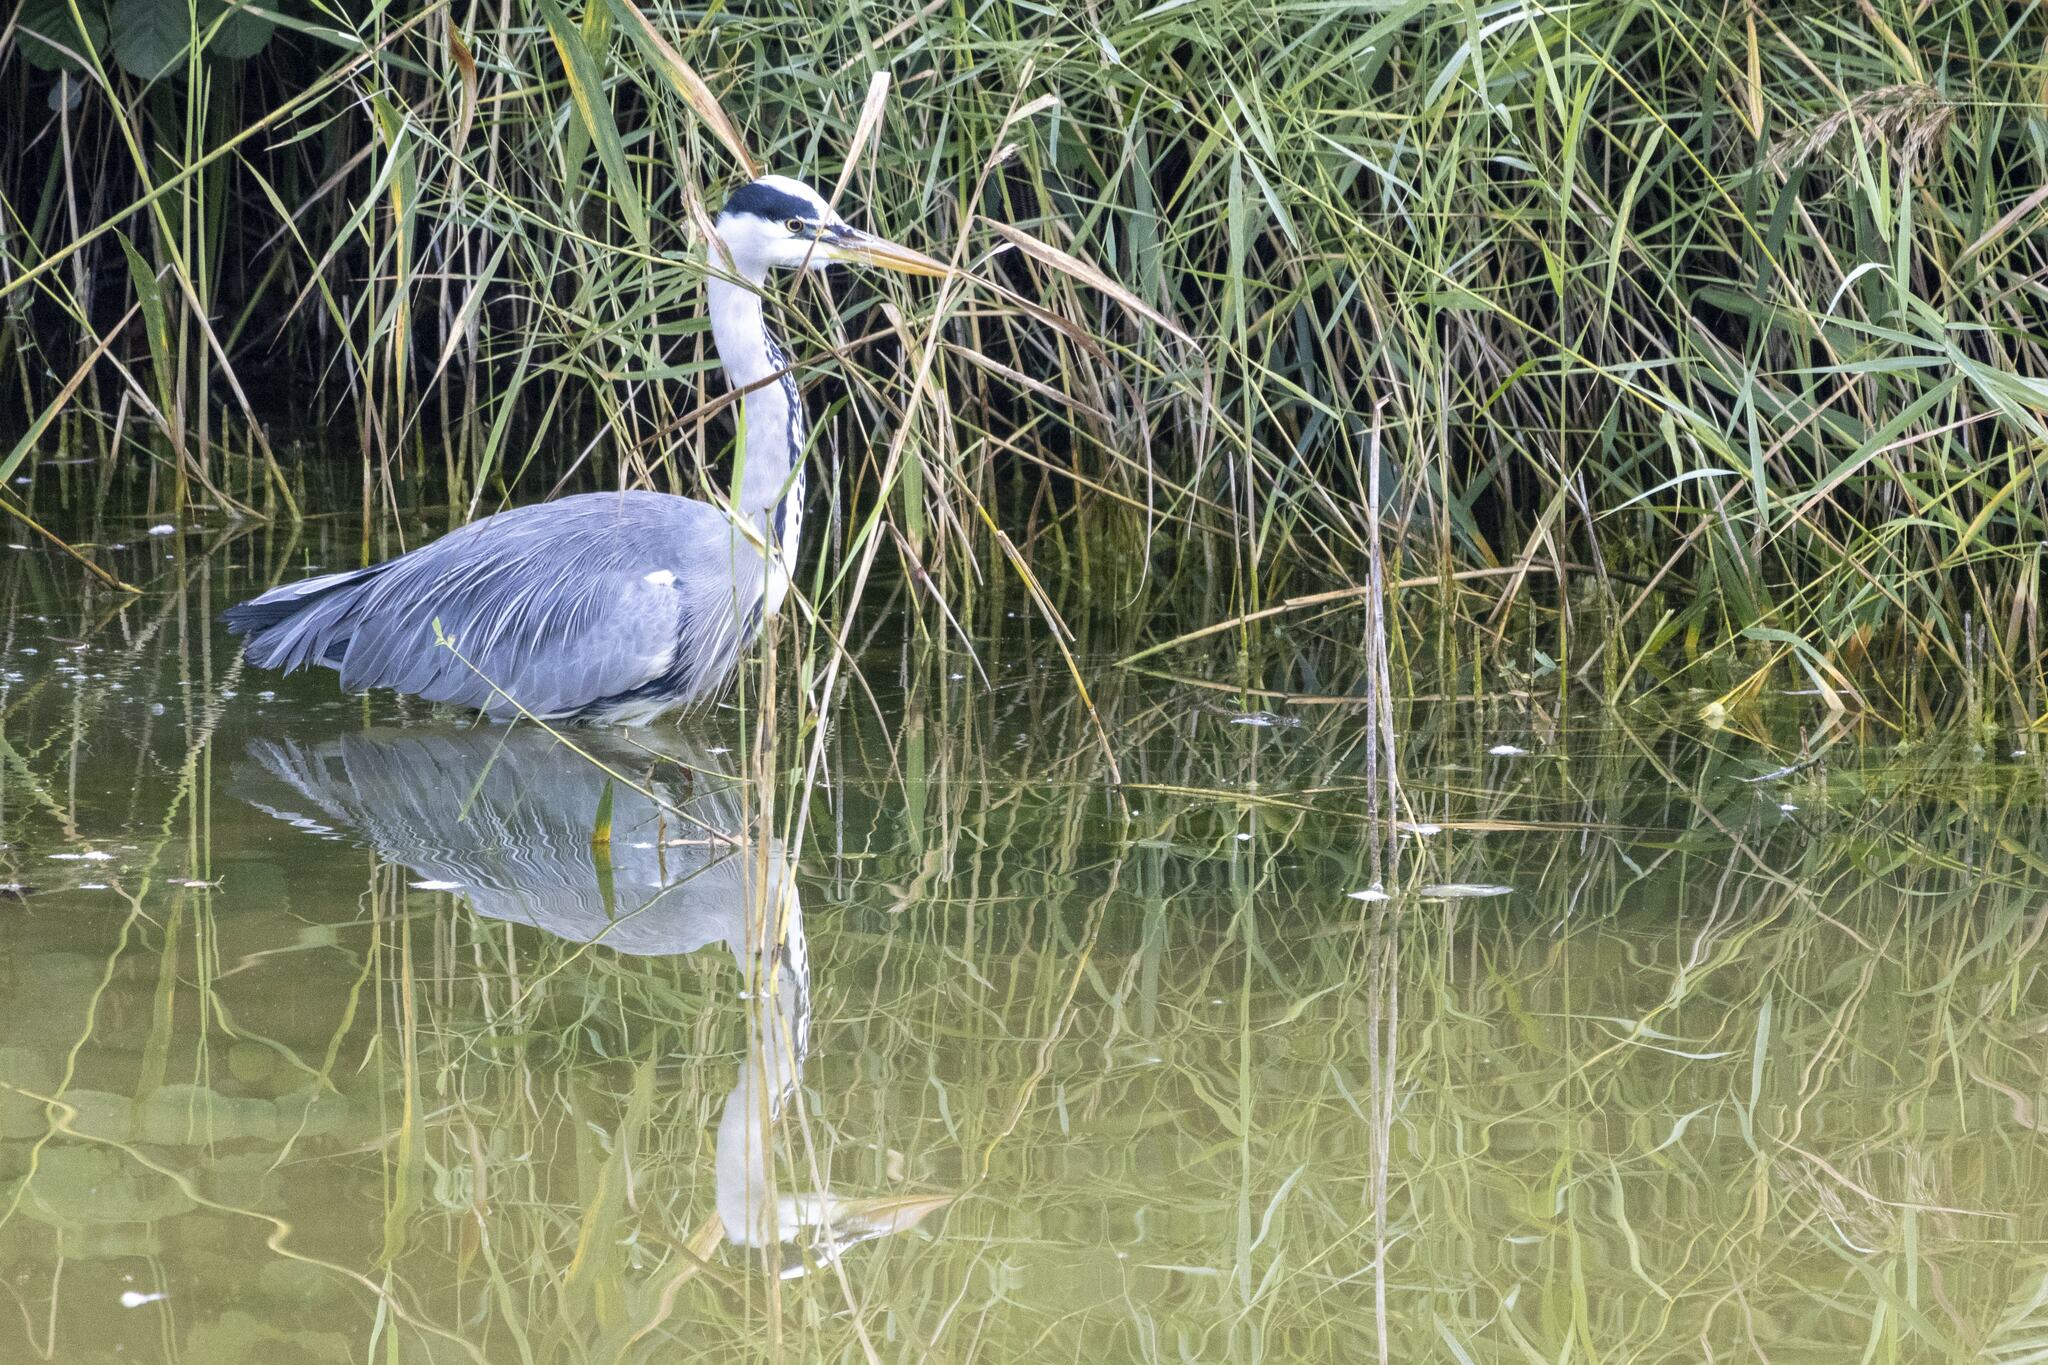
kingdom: Animalia
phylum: Chordata
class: Aves
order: Pelecaniformes
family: Ardeidae
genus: Ardea
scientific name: Ardea cinerea
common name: Grey heron
